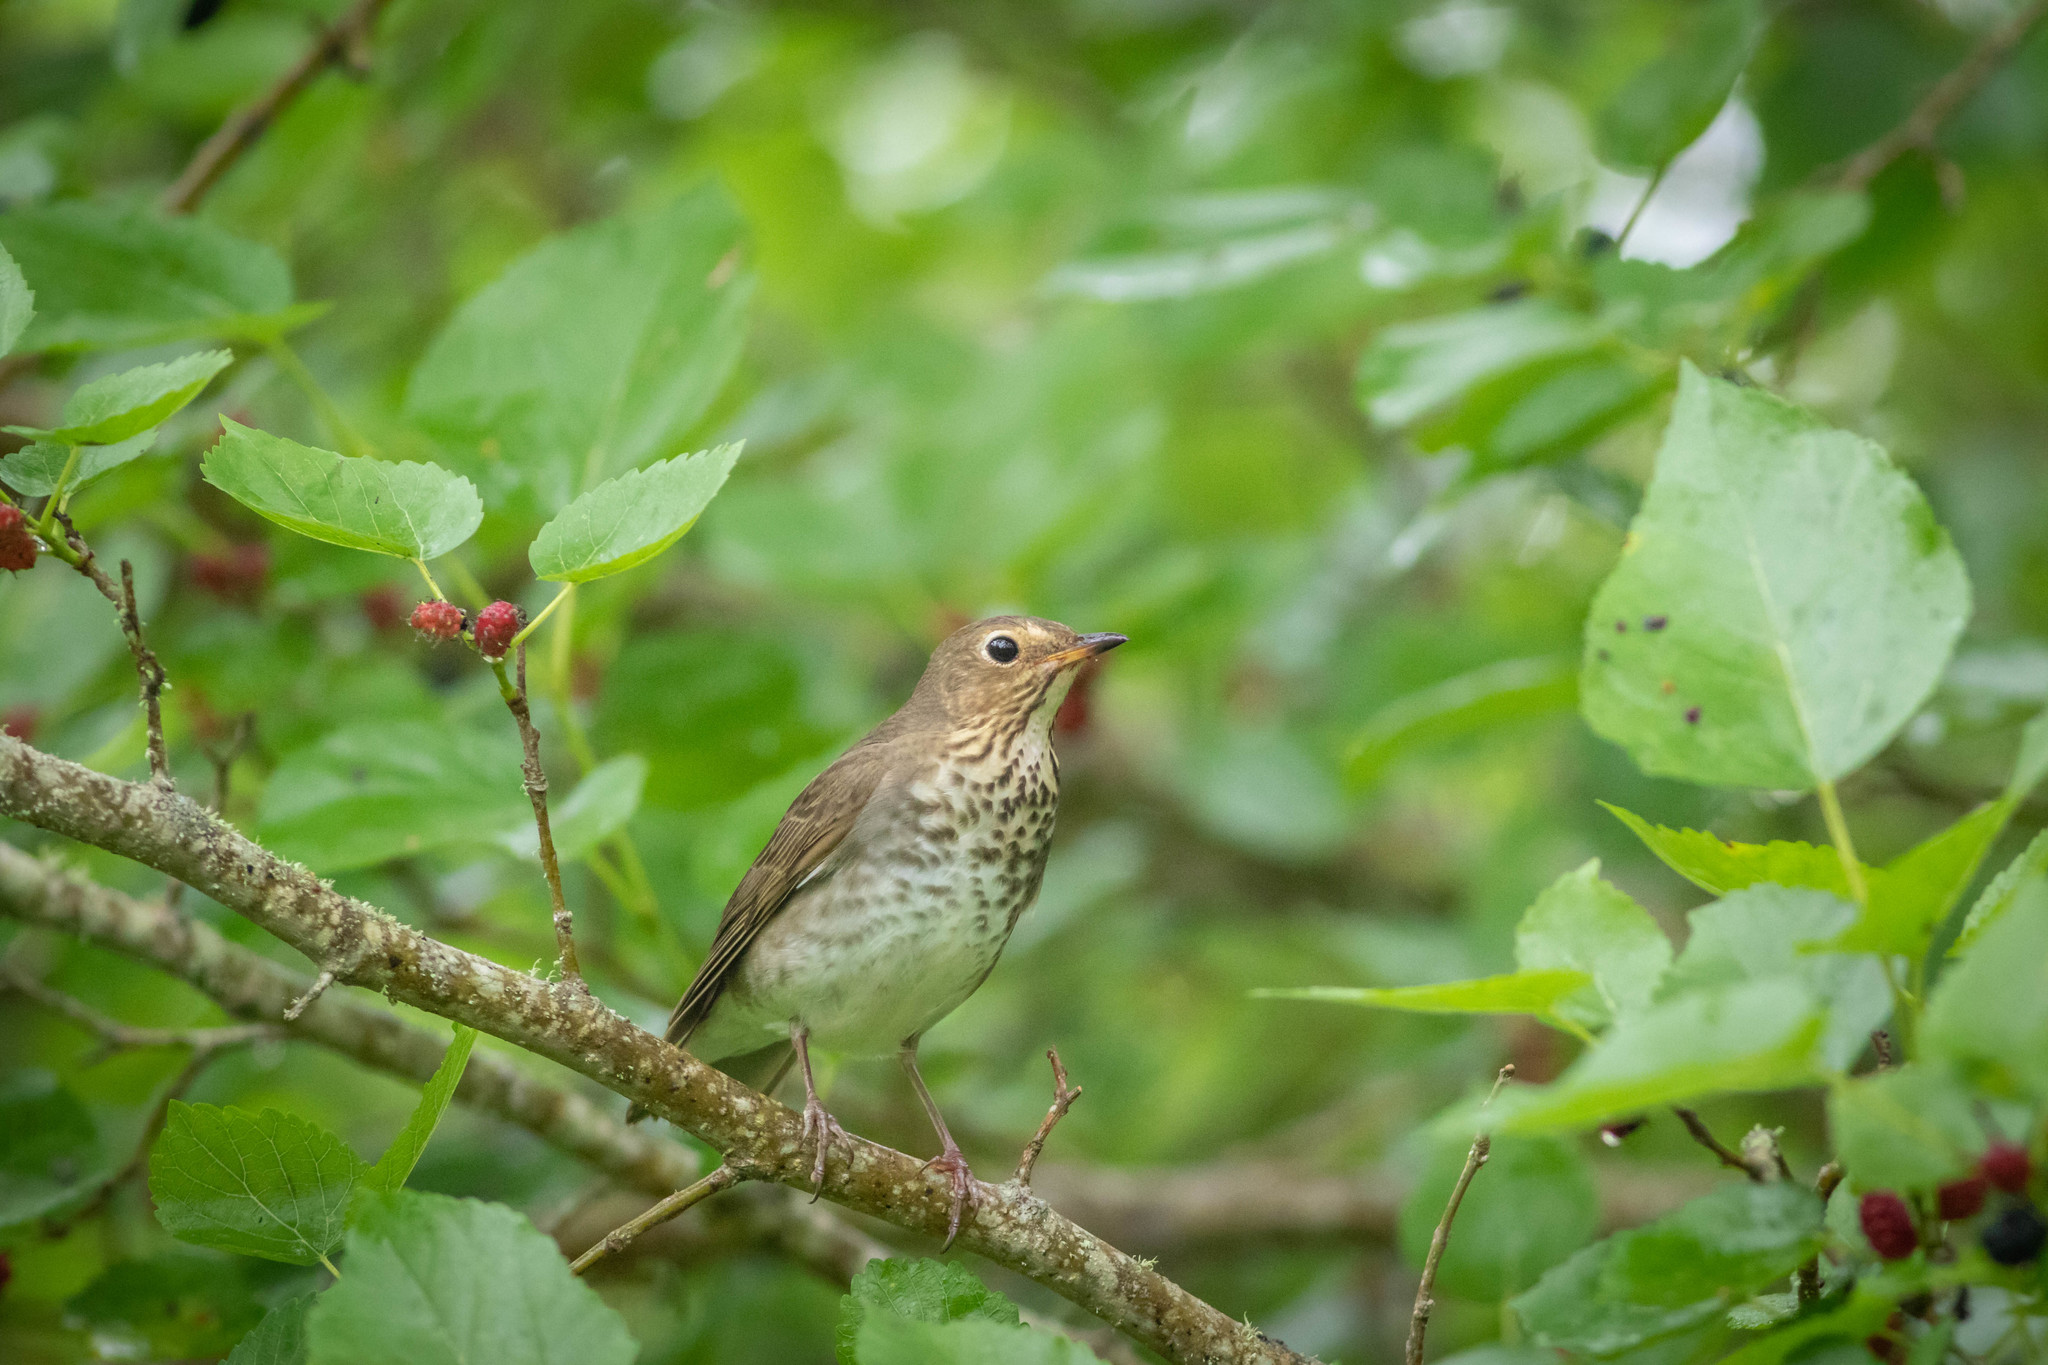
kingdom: Animalia
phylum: Chordata
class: Aves
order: Passeriformes
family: Turdidae
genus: Catharus
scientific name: Catharus ustulatus
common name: Swainson's thrush
